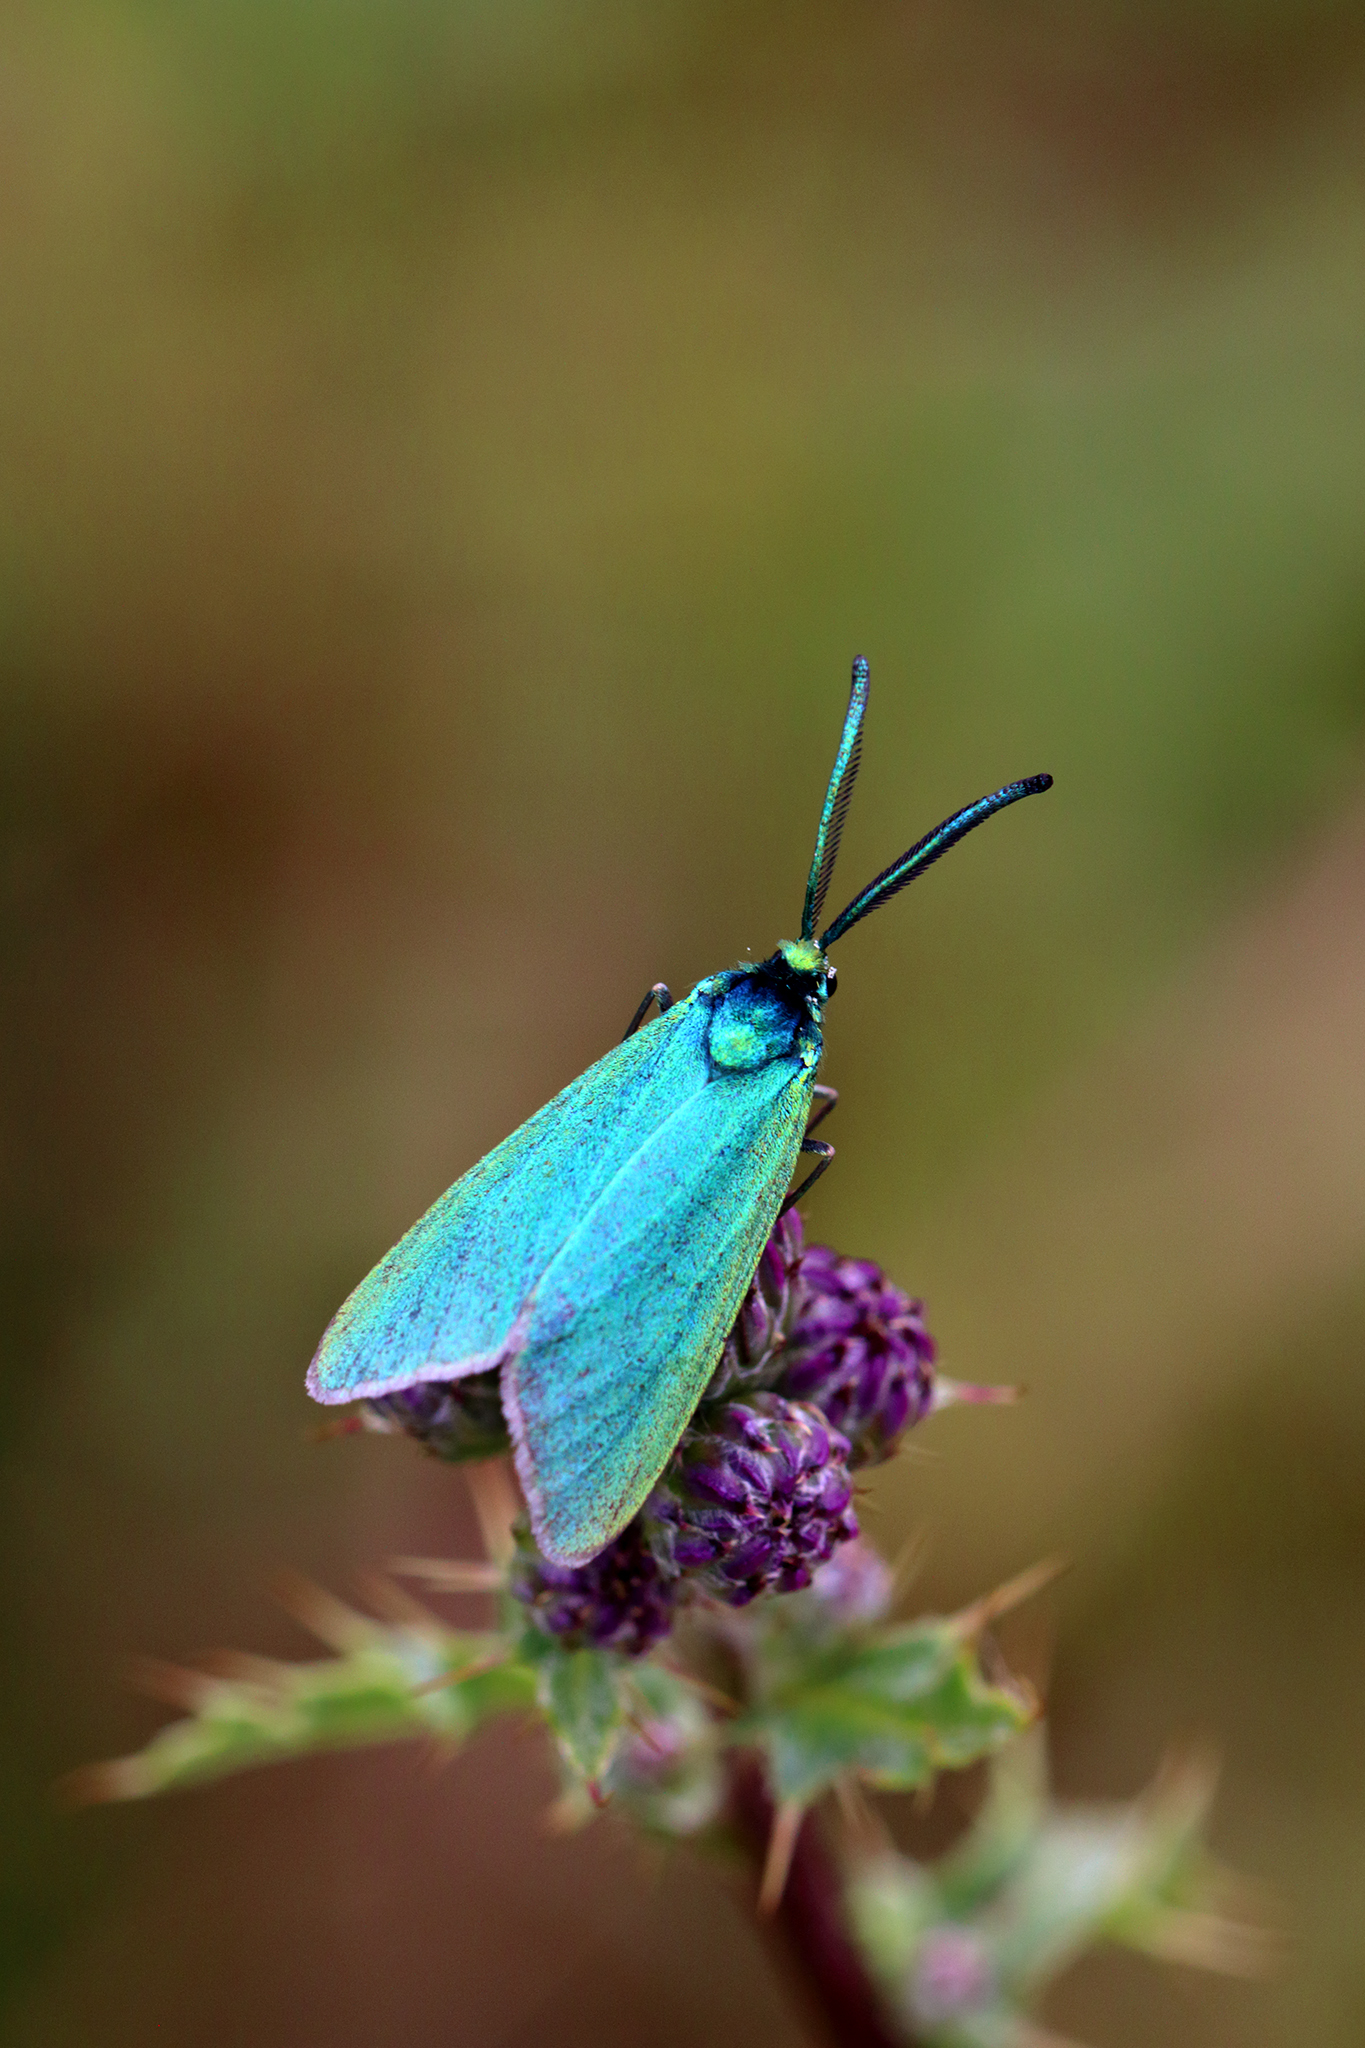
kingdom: Animalia
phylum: Arthropoda
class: Insecta
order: Lepidoptera
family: Zygaenidae
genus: Adscita
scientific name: Adscita statices
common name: Forester
